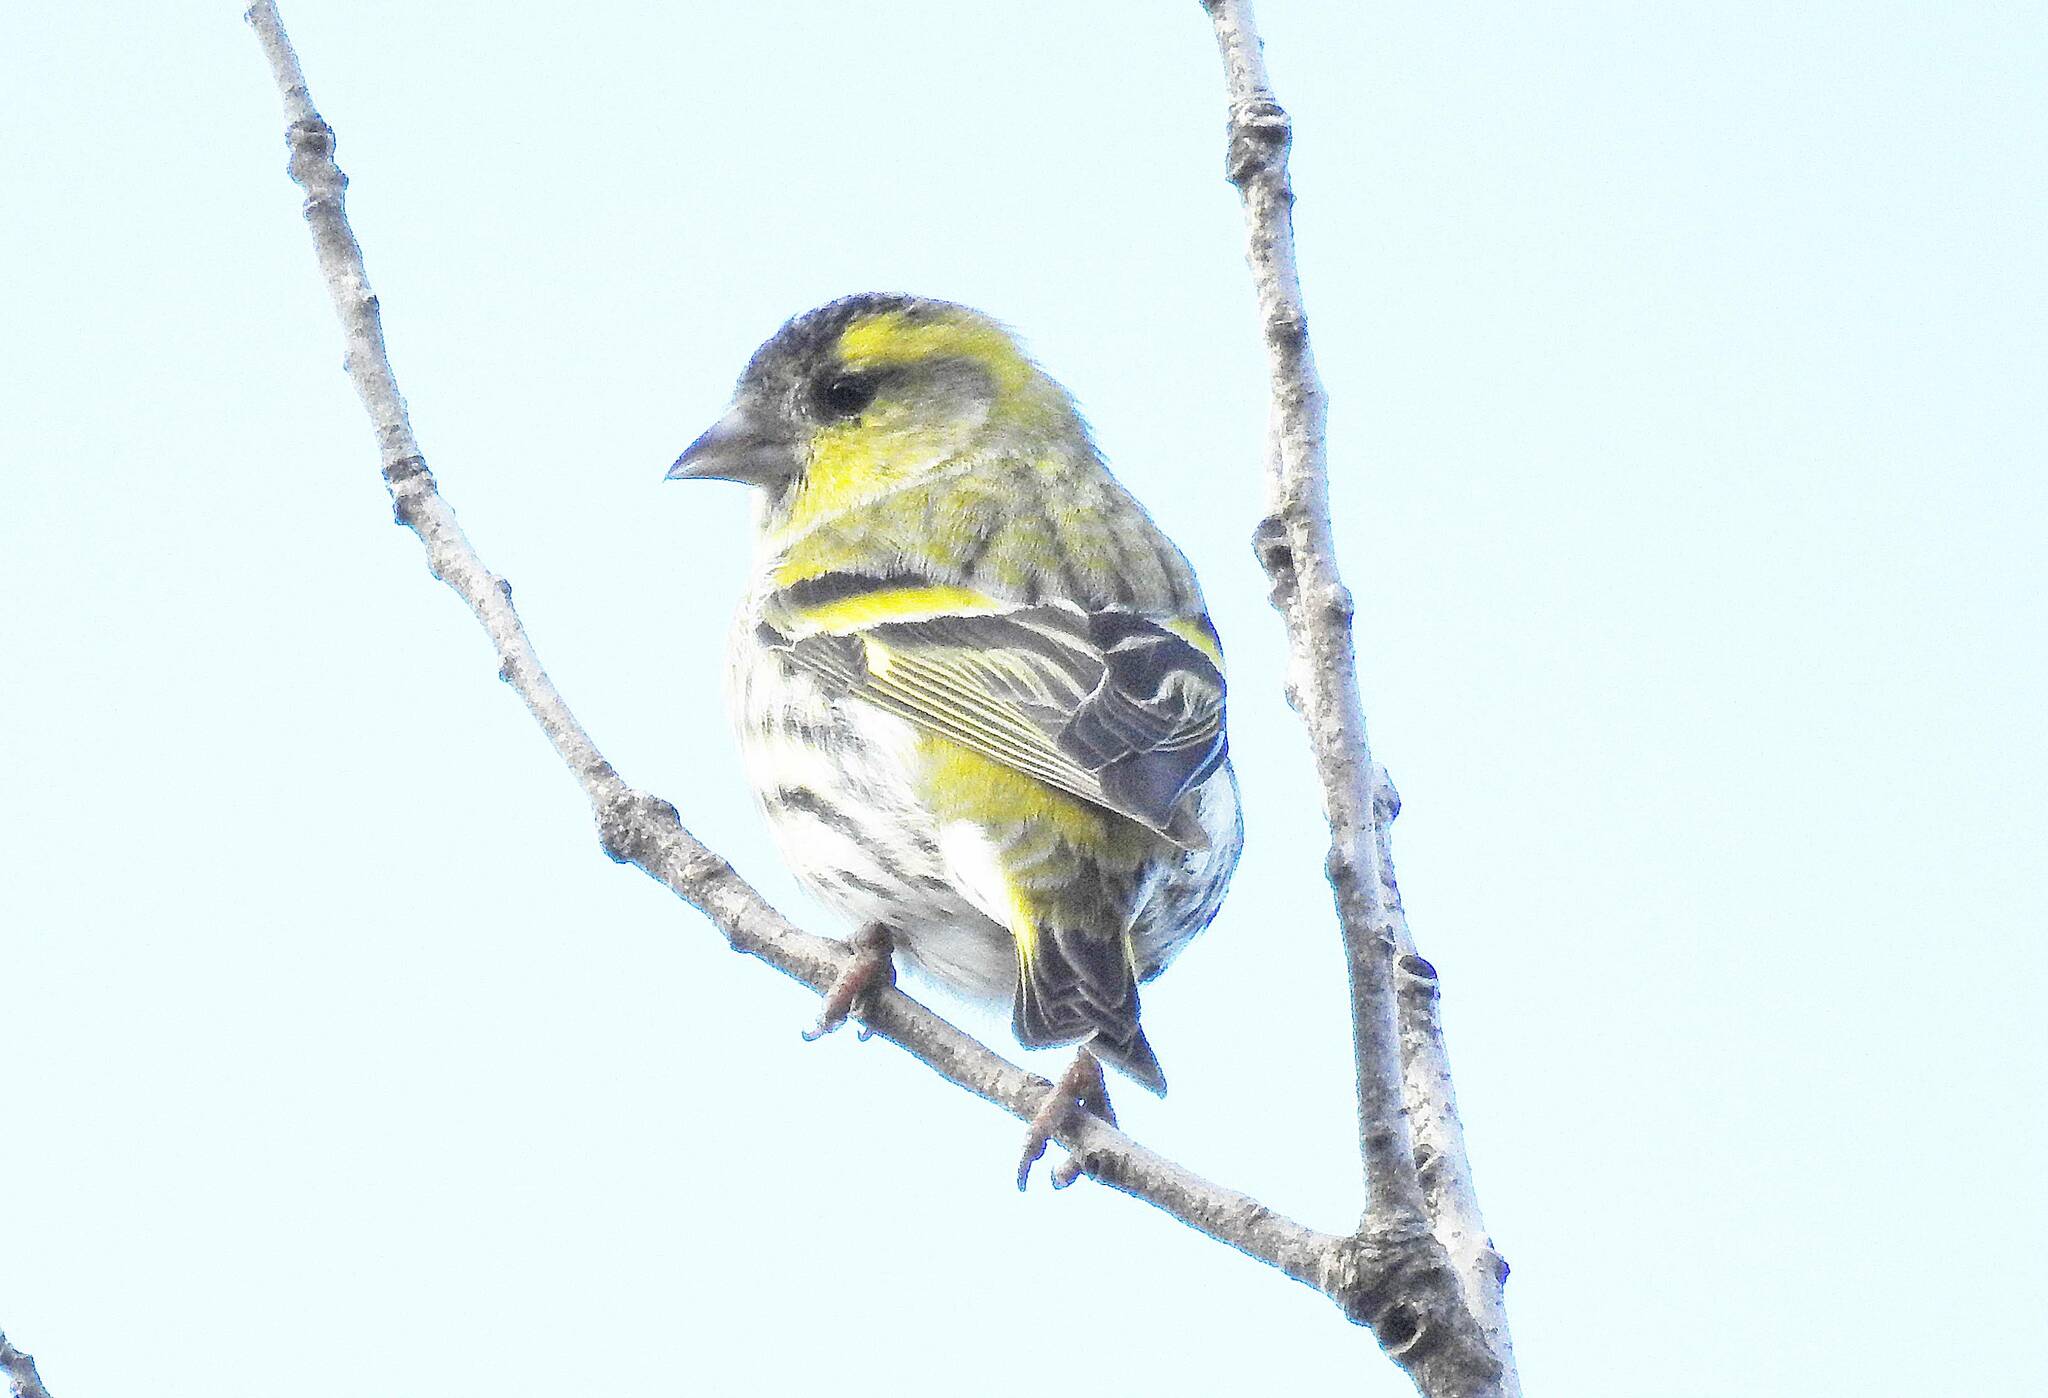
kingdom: Animalia
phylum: Chordata
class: Aves
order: Passeriformes
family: Fringillidae
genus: Spinus
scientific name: Spinus spinus
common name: Eurasian siskin
